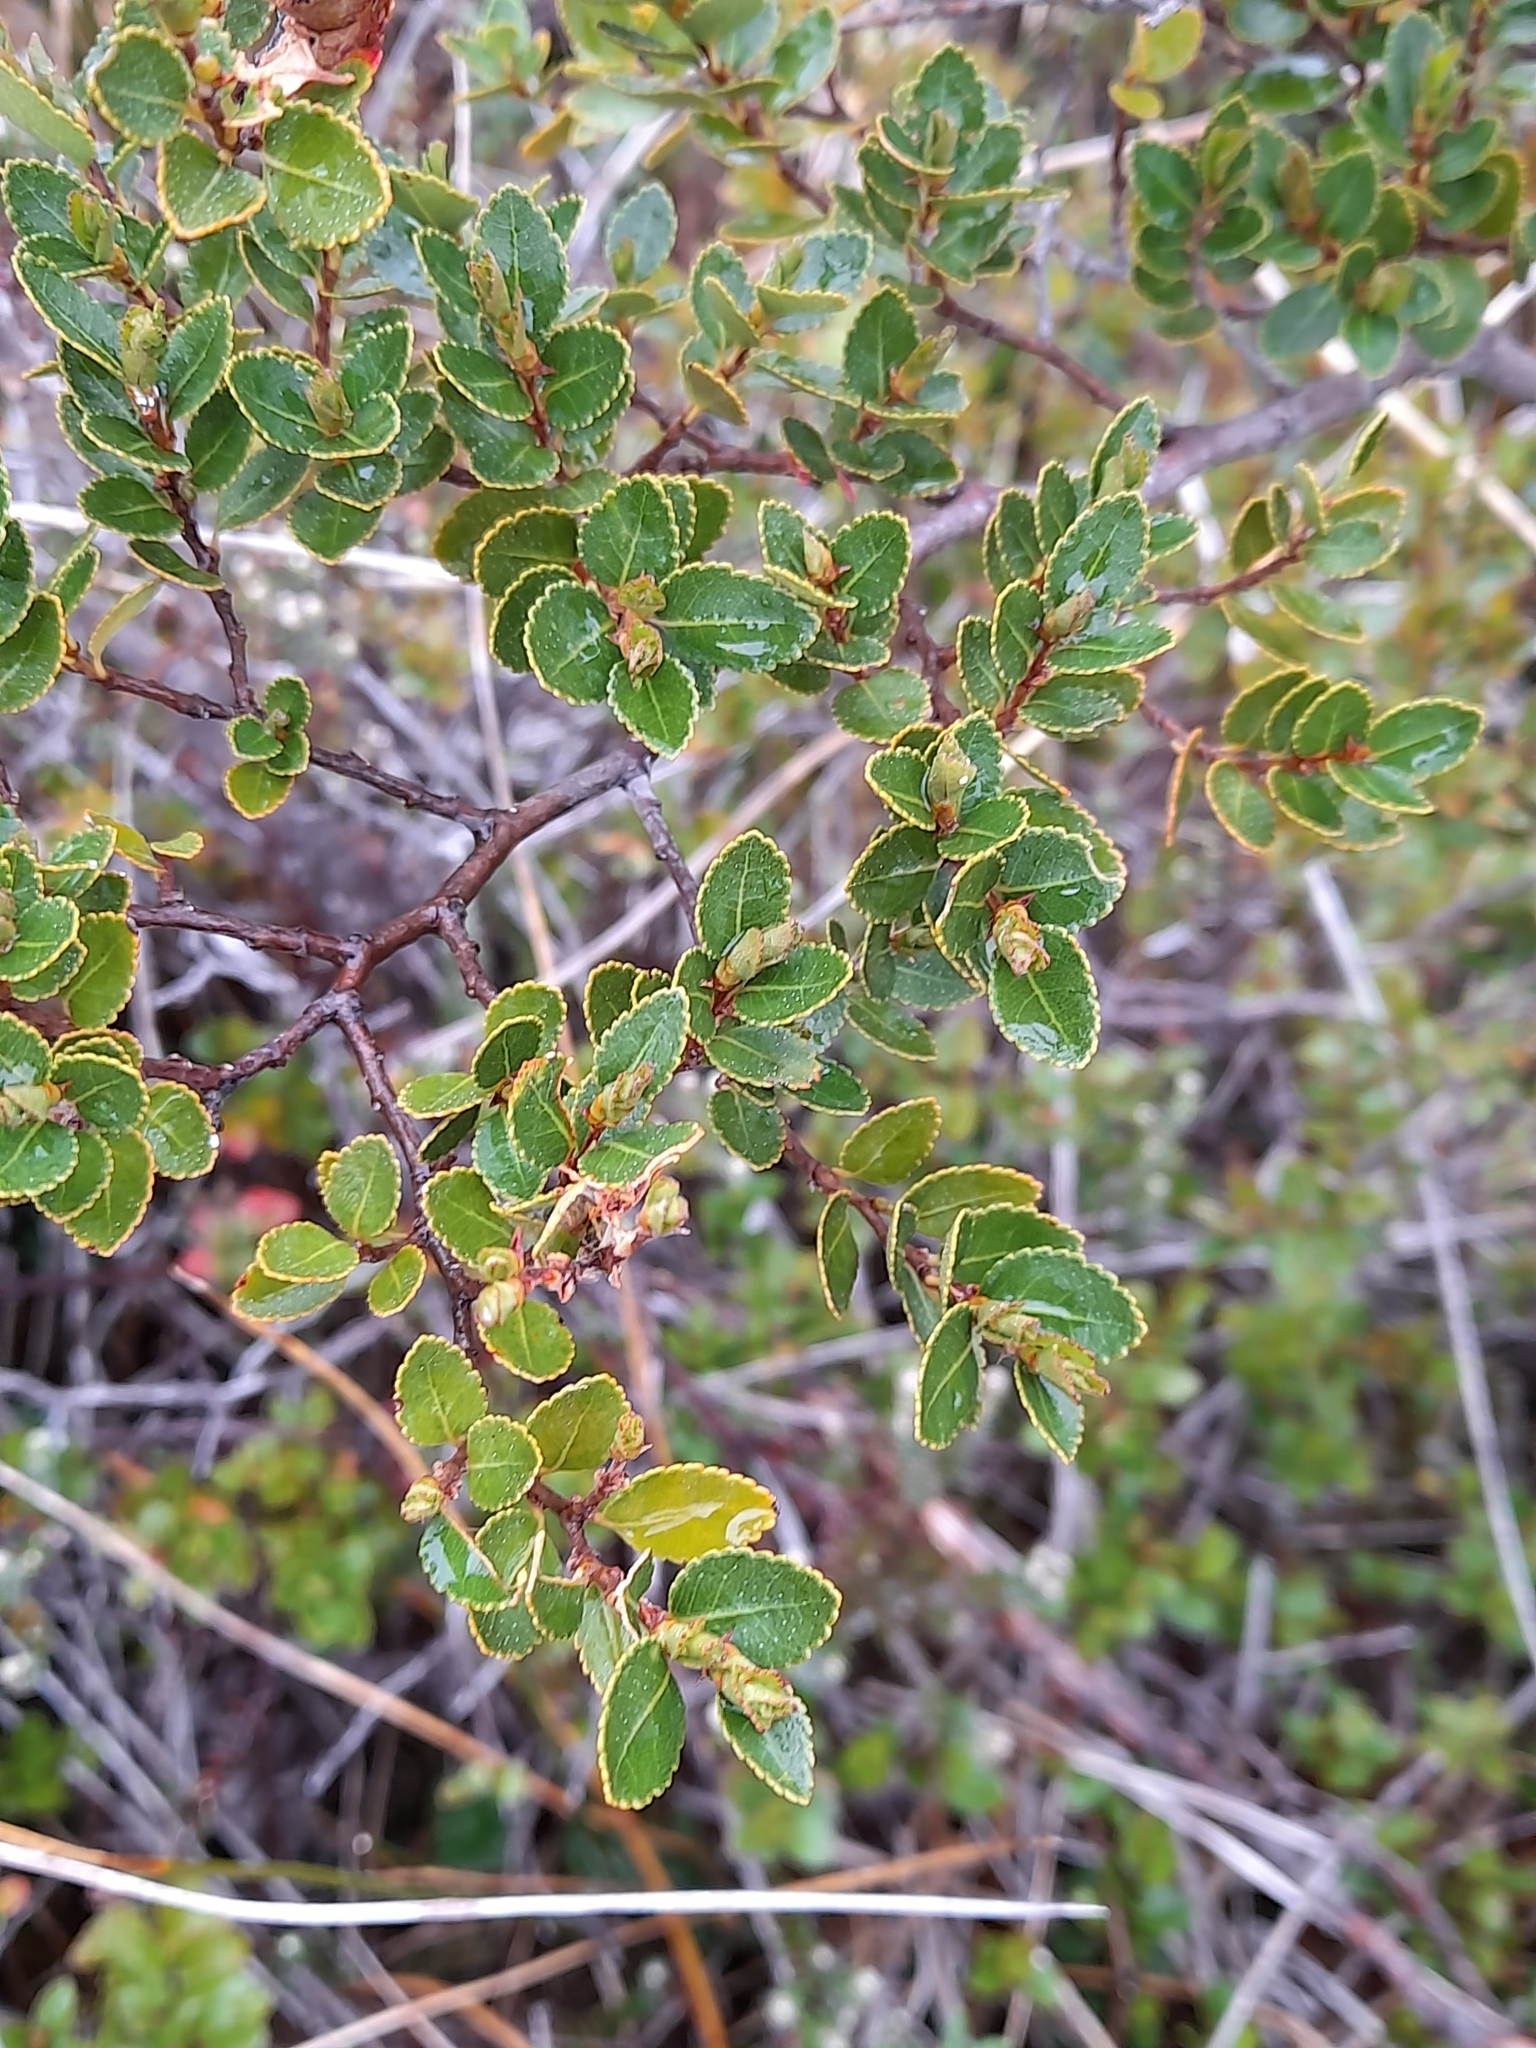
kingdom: Plantae
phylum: Tracheophyta
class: Magnoliopsida
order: Fagales
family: Nothofagaceae
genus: Nothofagus
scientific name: Nothofagus betuloides
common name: Magellan's beech
